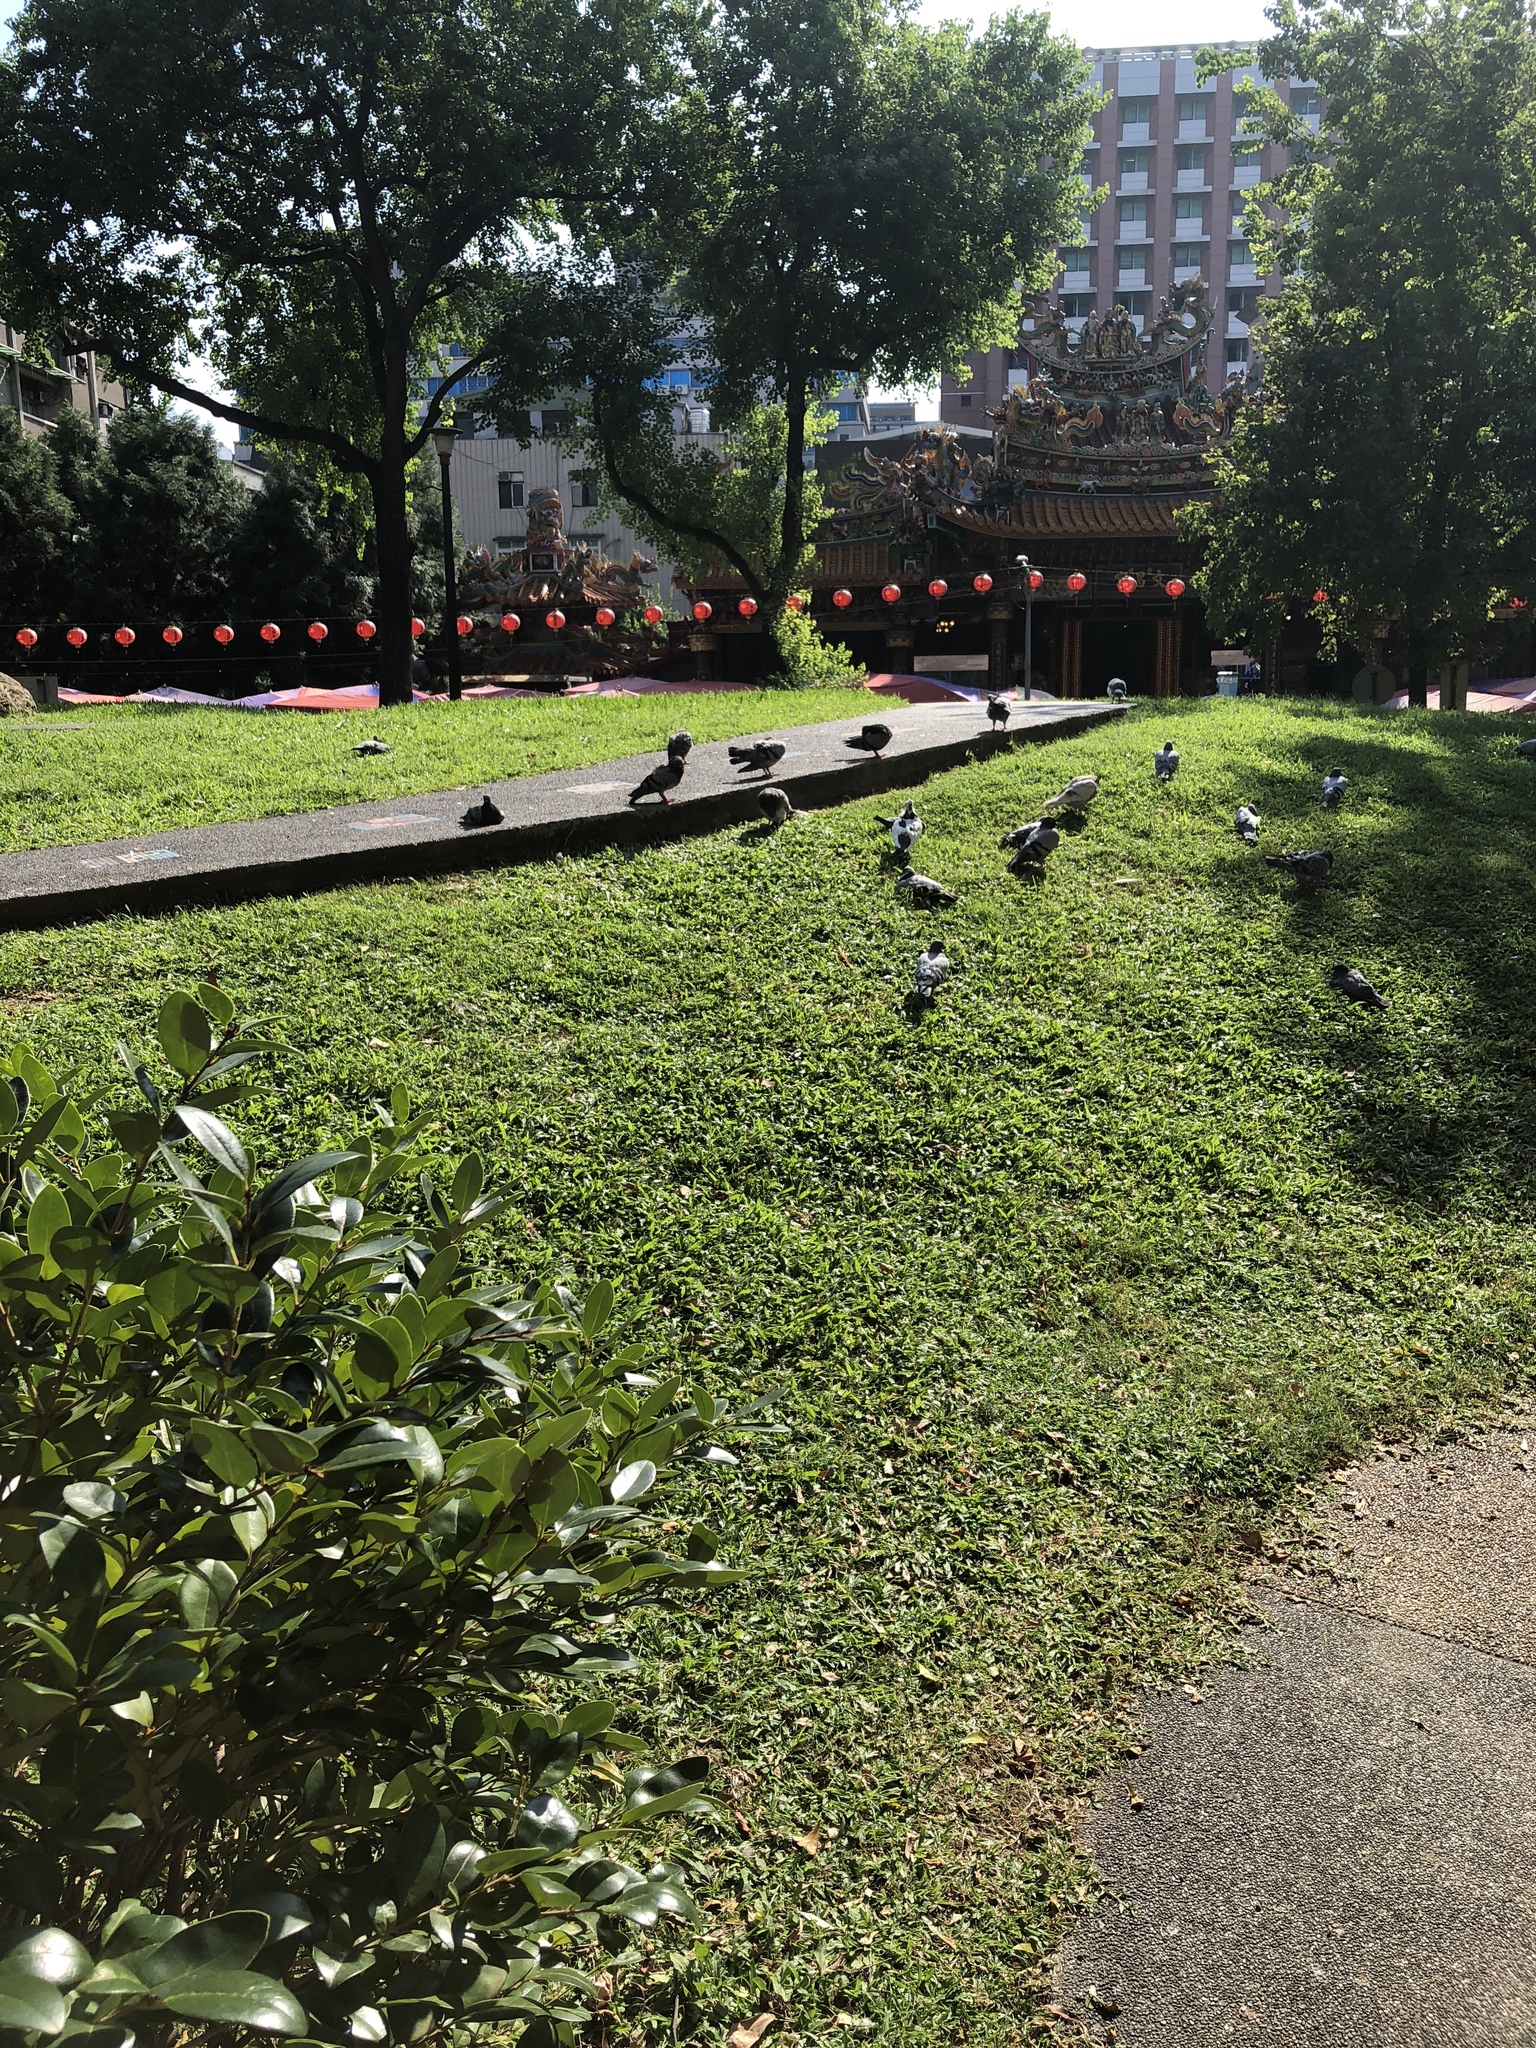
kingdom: Animalia
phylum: Chordata
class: Aves
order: Columbiformes
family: Columbidae
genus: Columba
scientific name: Columba livia
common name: Rock pigeon
